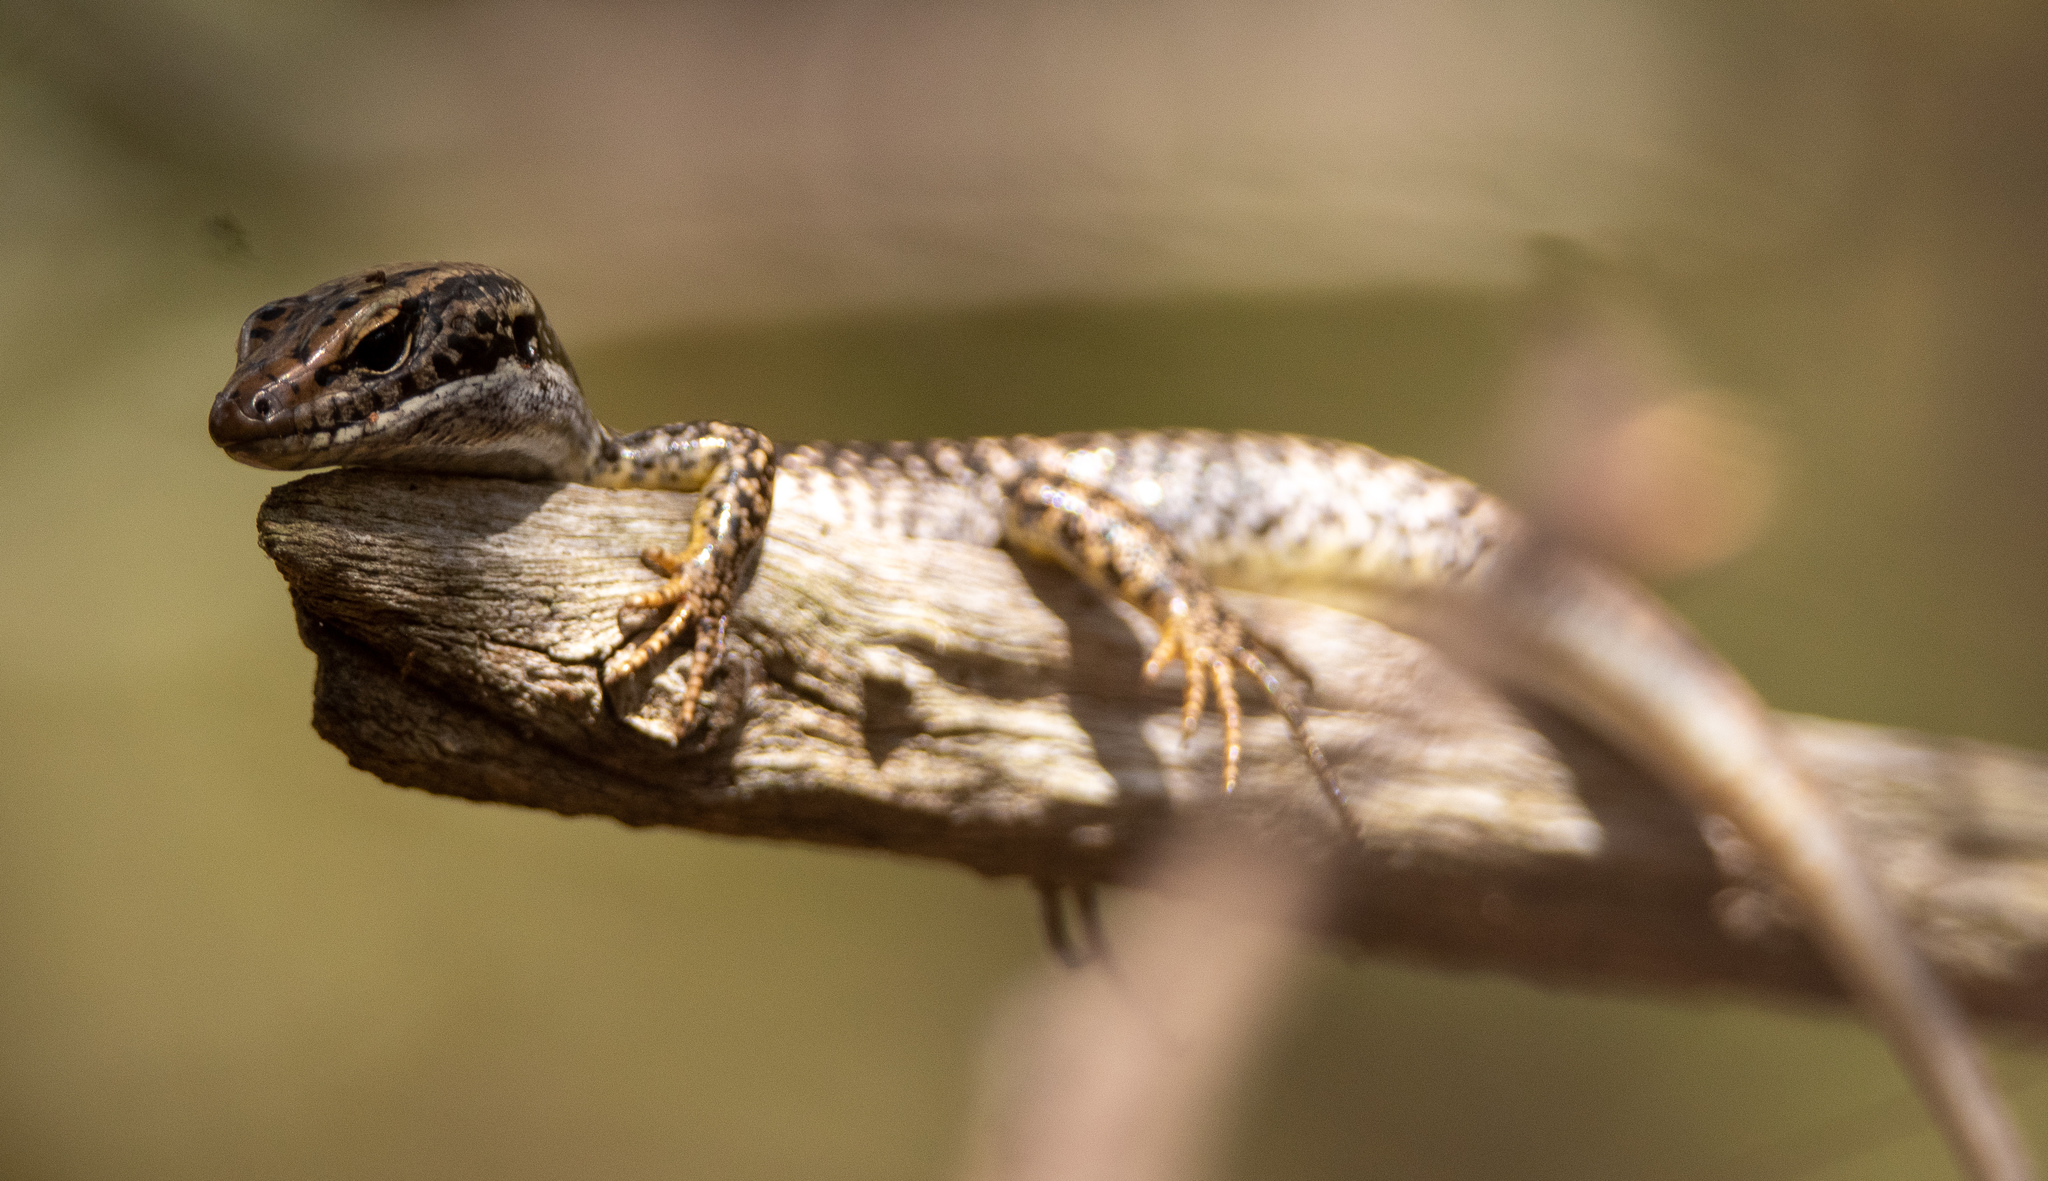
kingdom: Animalia
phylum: Chordata
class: Squamata
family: Scincidae
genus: Eulamprus
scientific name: Eulamprus heatwolei
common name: Warm-temperate water-skink
